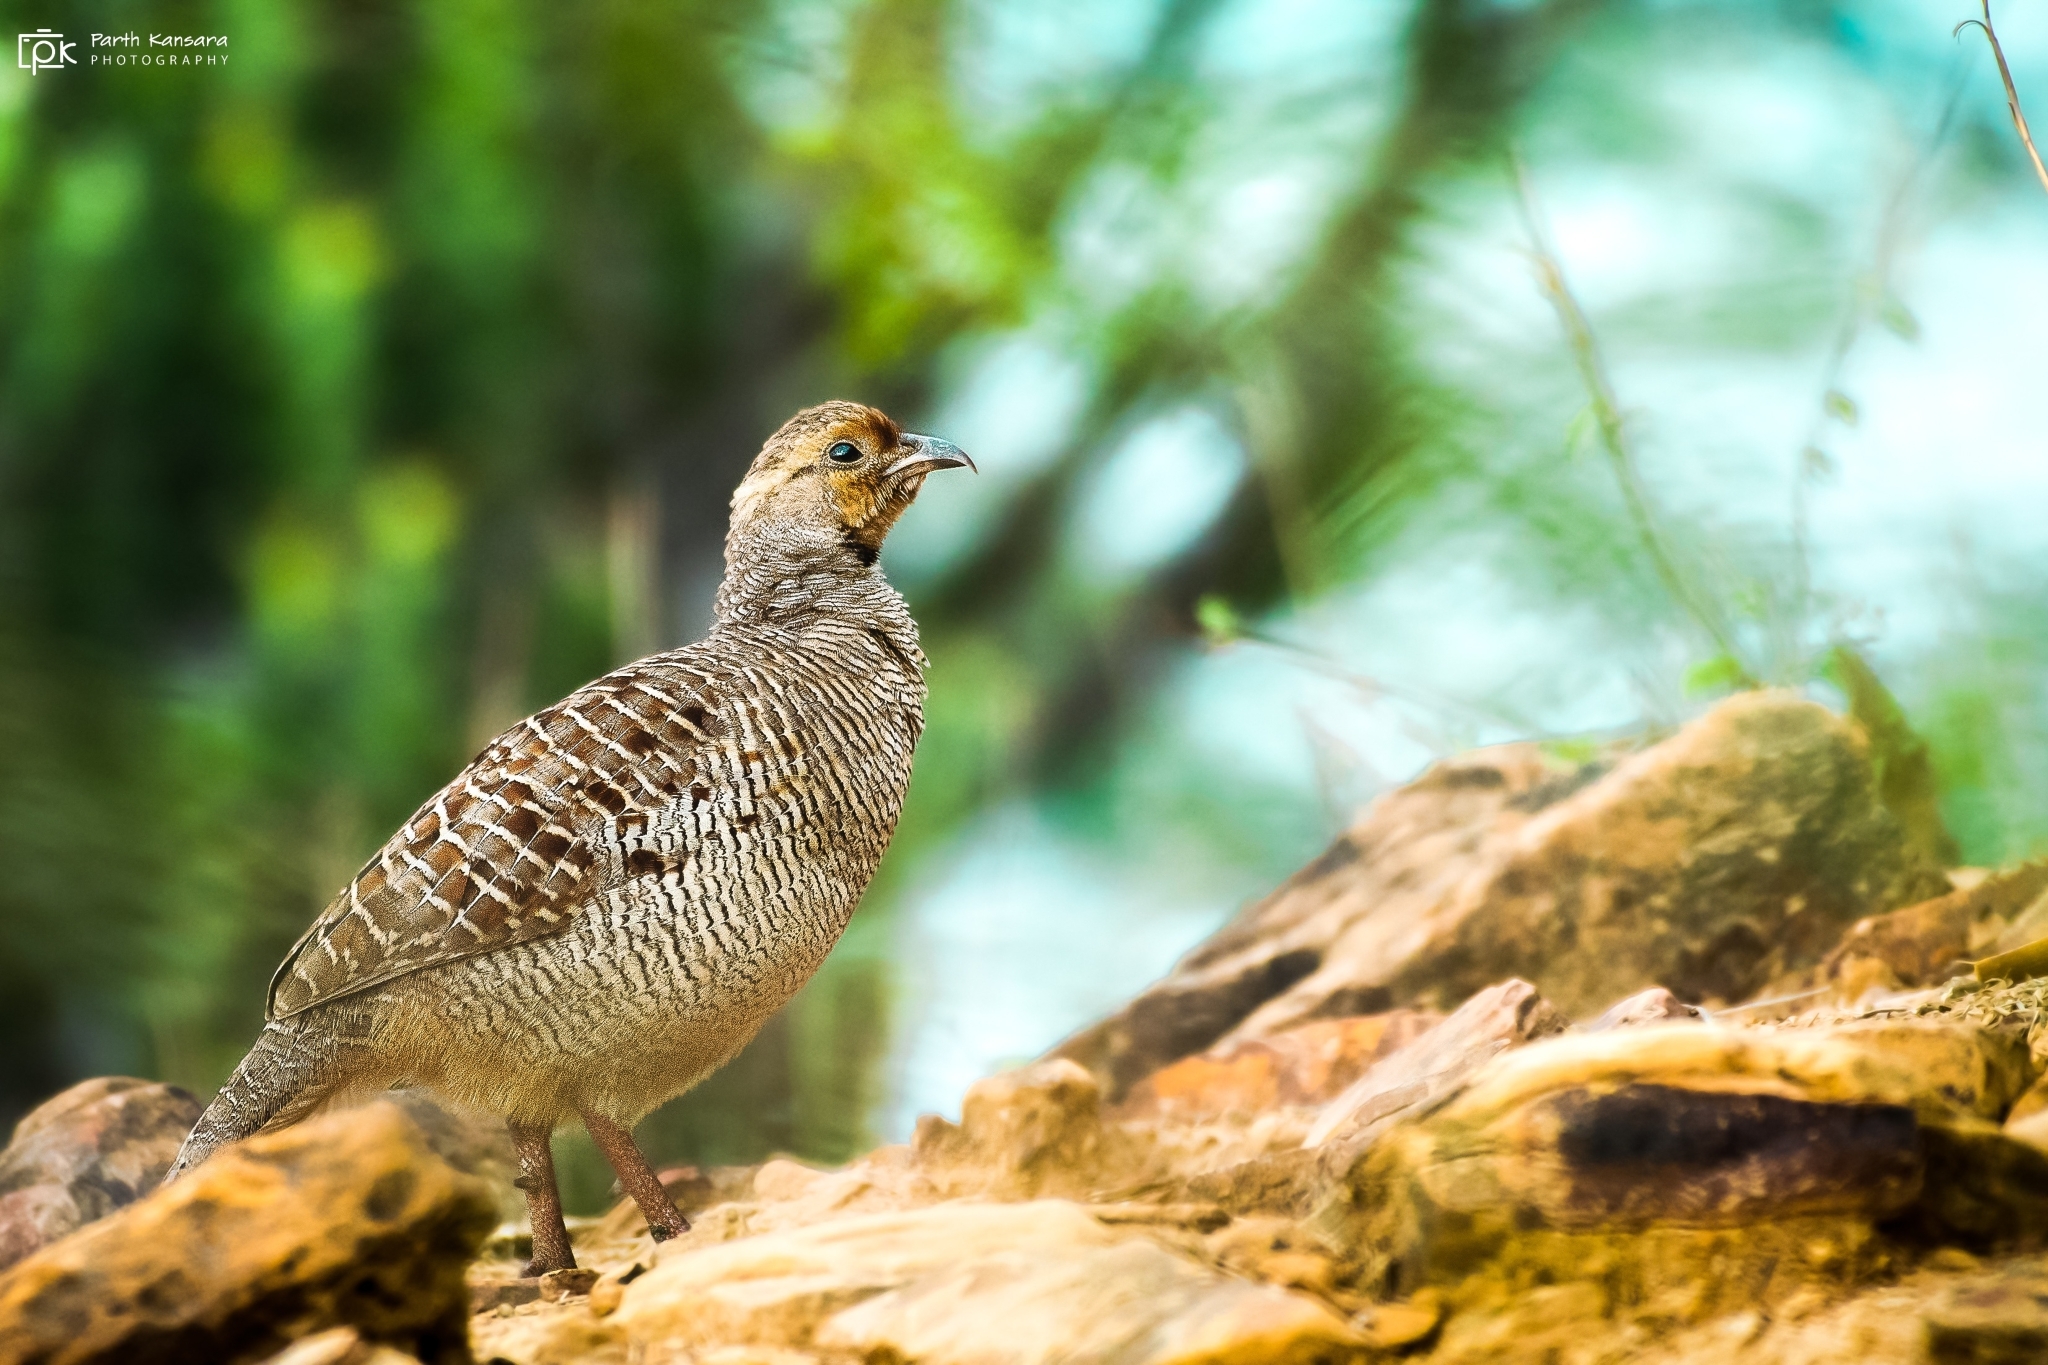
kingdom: Animalia
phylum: Chordata
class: Aves
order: Galliformes
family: Phasianidae
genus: Ortygornis
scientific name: Ortygornis pondicerianus
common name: Grey francolin
